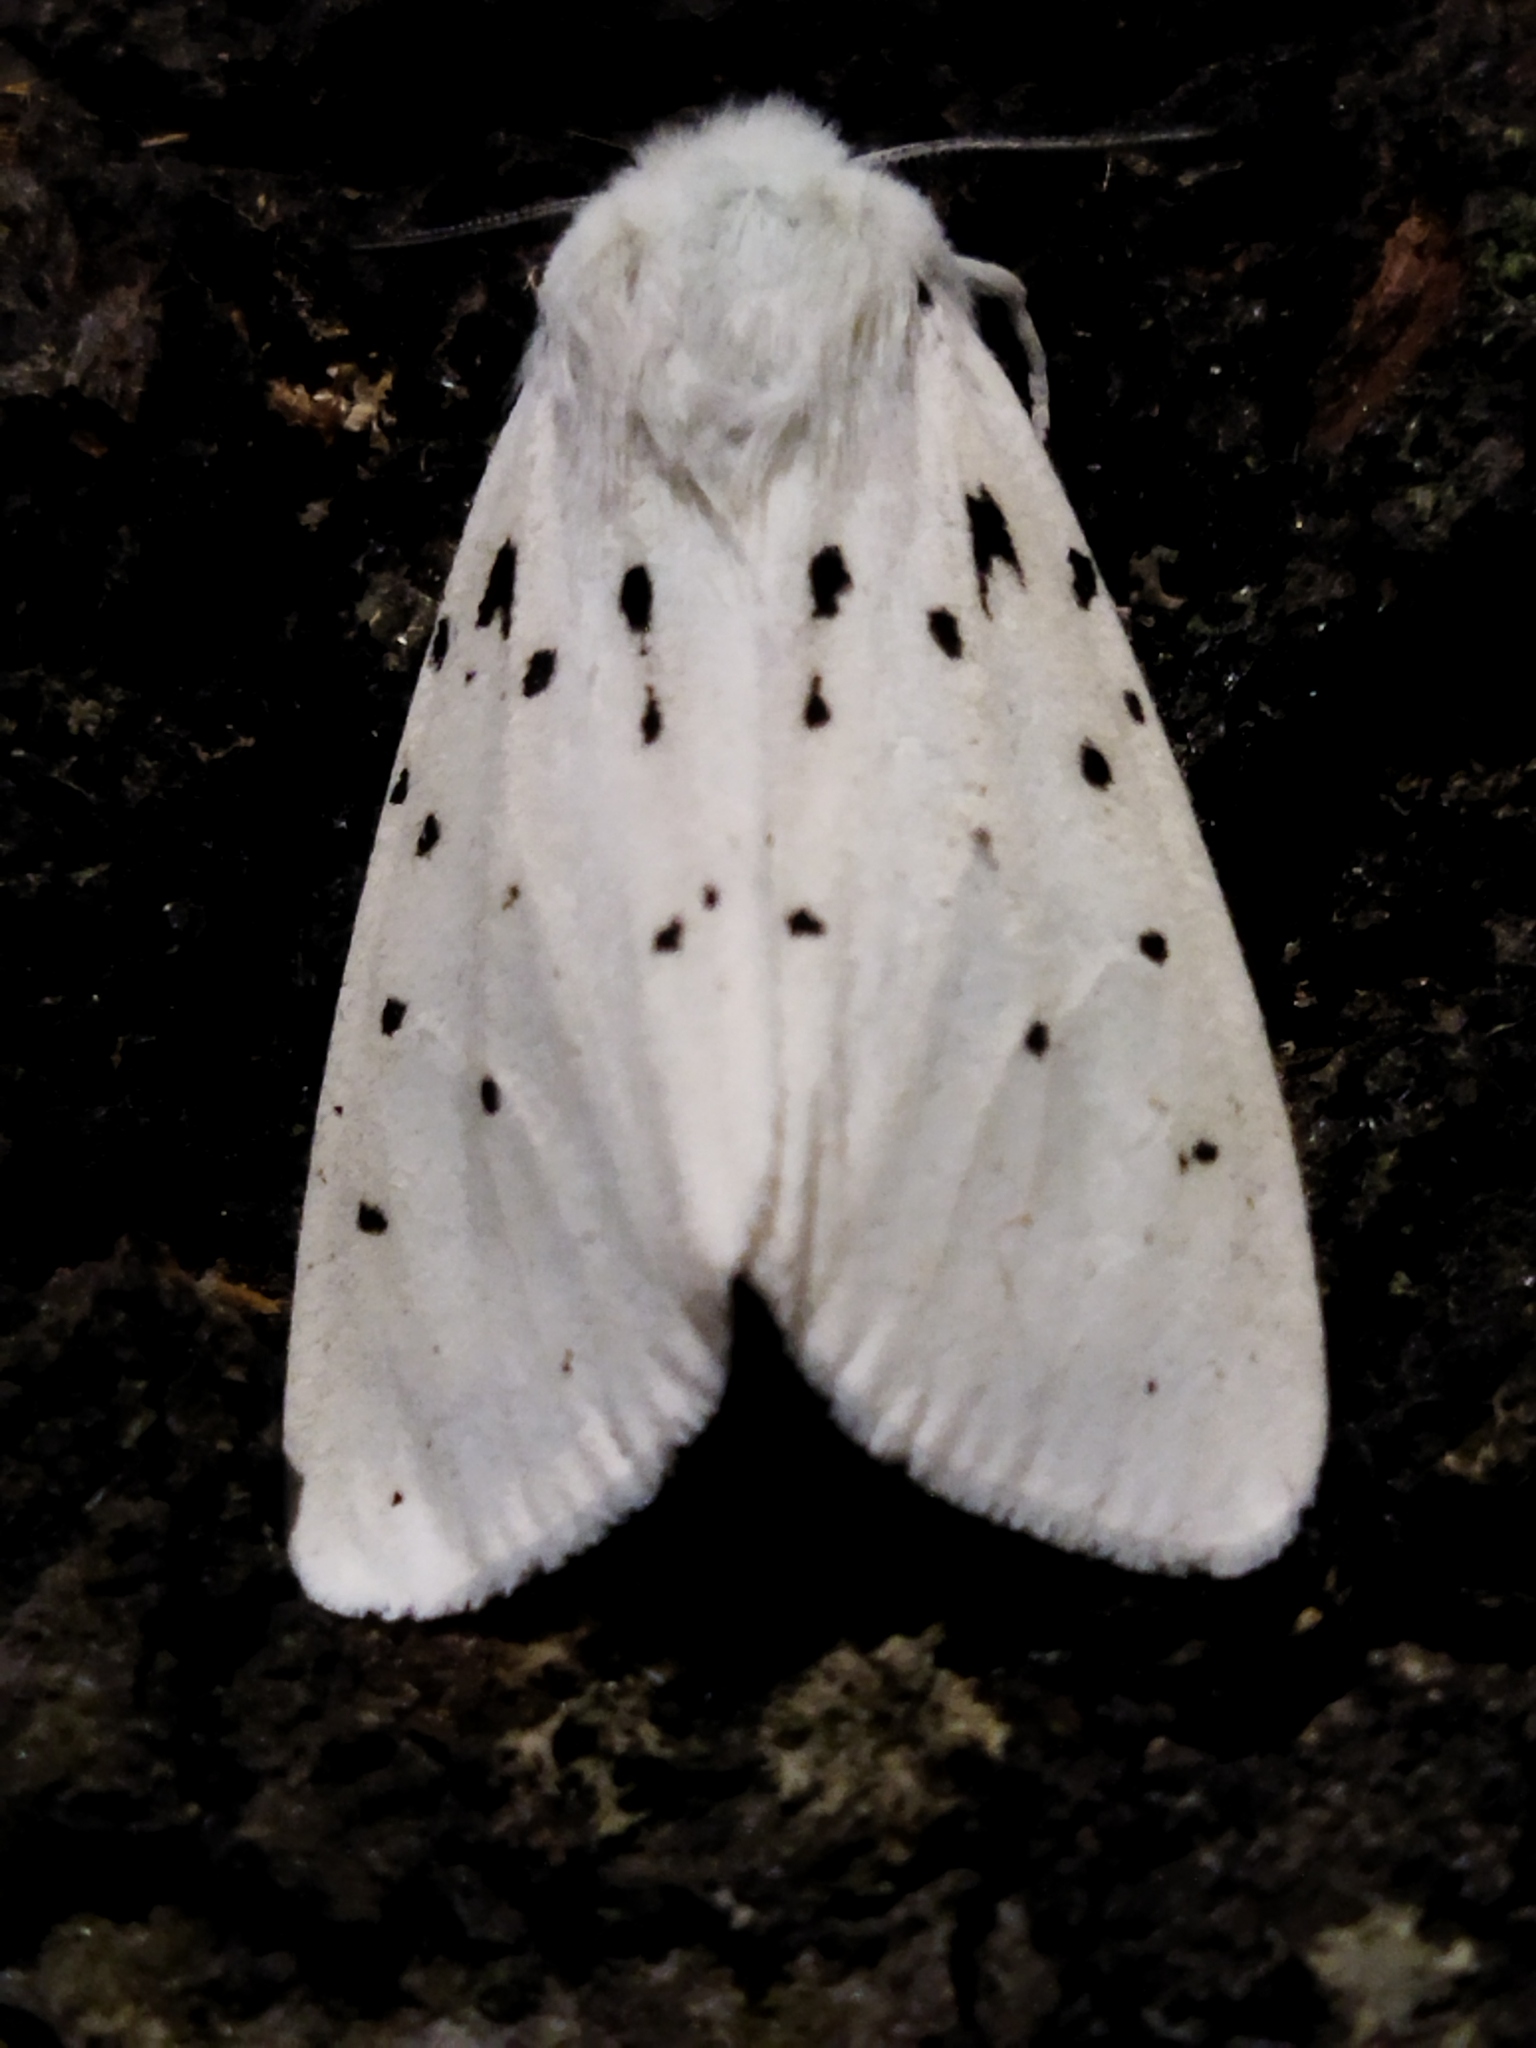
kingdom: Animalia
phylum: Arthropoda
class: Insecta
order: Lepidoptera
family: Erebidae
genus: Spilosoma
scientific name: Spilosoma lubricipeda
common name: White ermine
